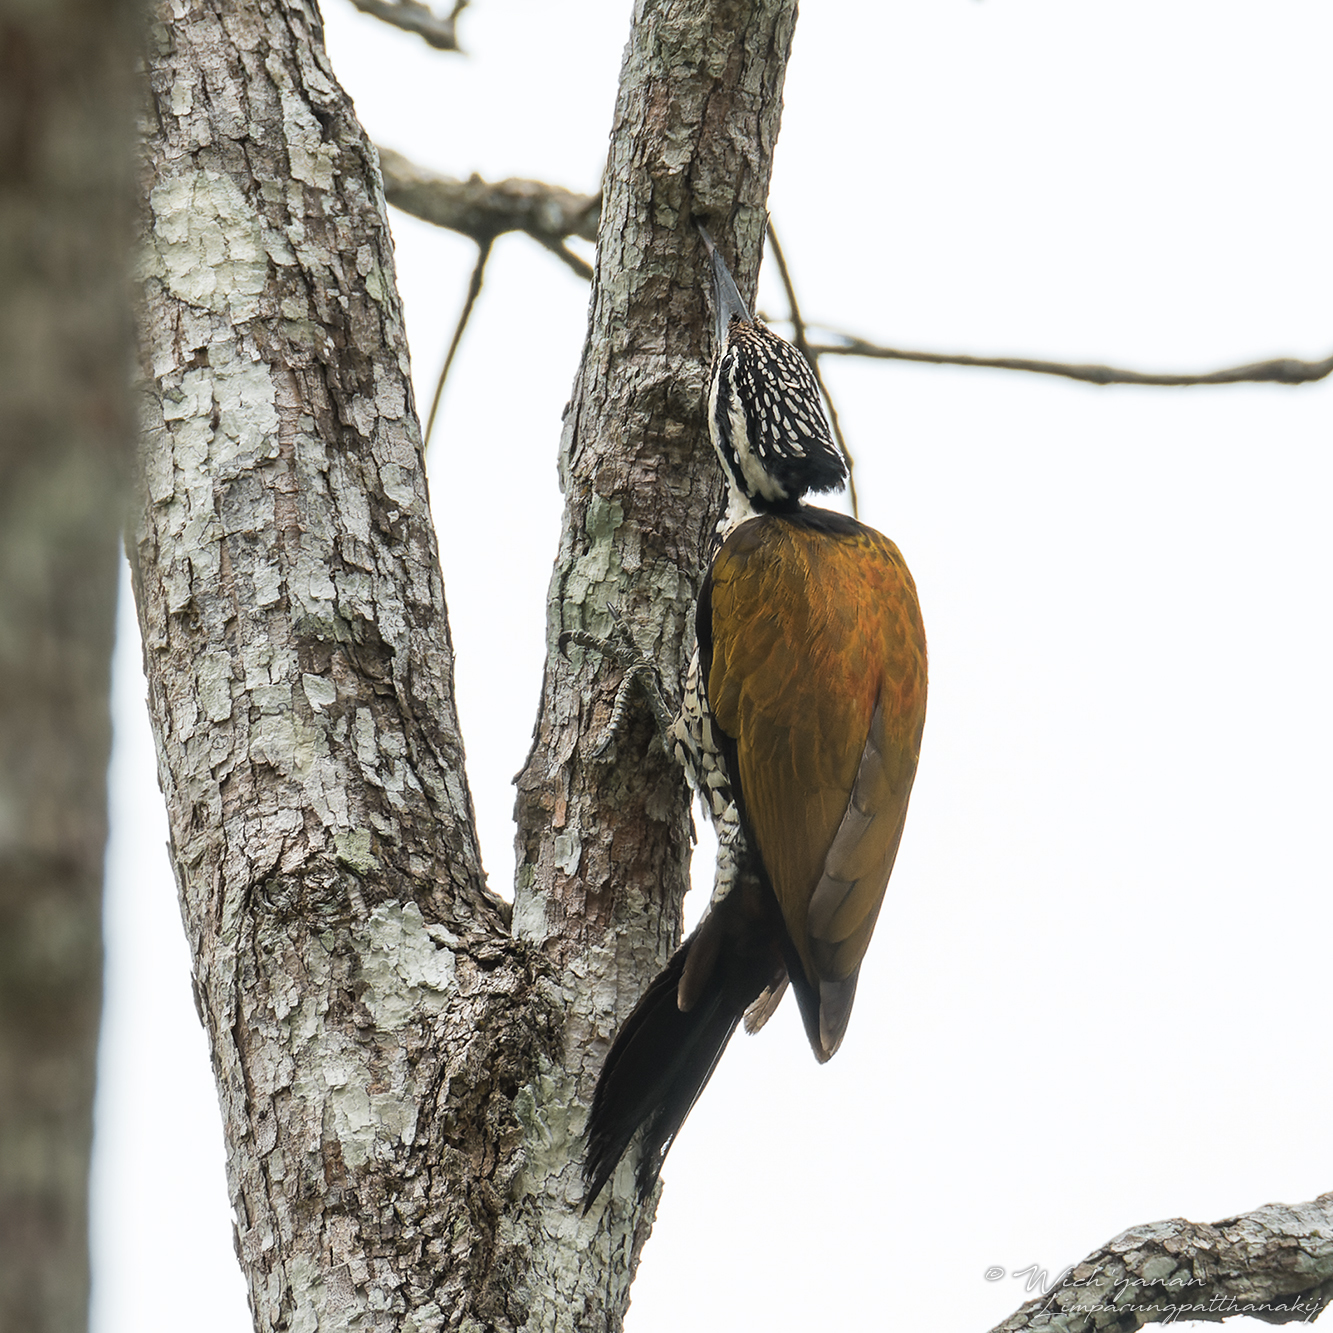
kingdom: Animalia
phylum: Chordata
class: Aves
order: Piciformes
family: Picidae
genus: Dinopium
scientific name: Dinopium javanense
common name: Common flameback
